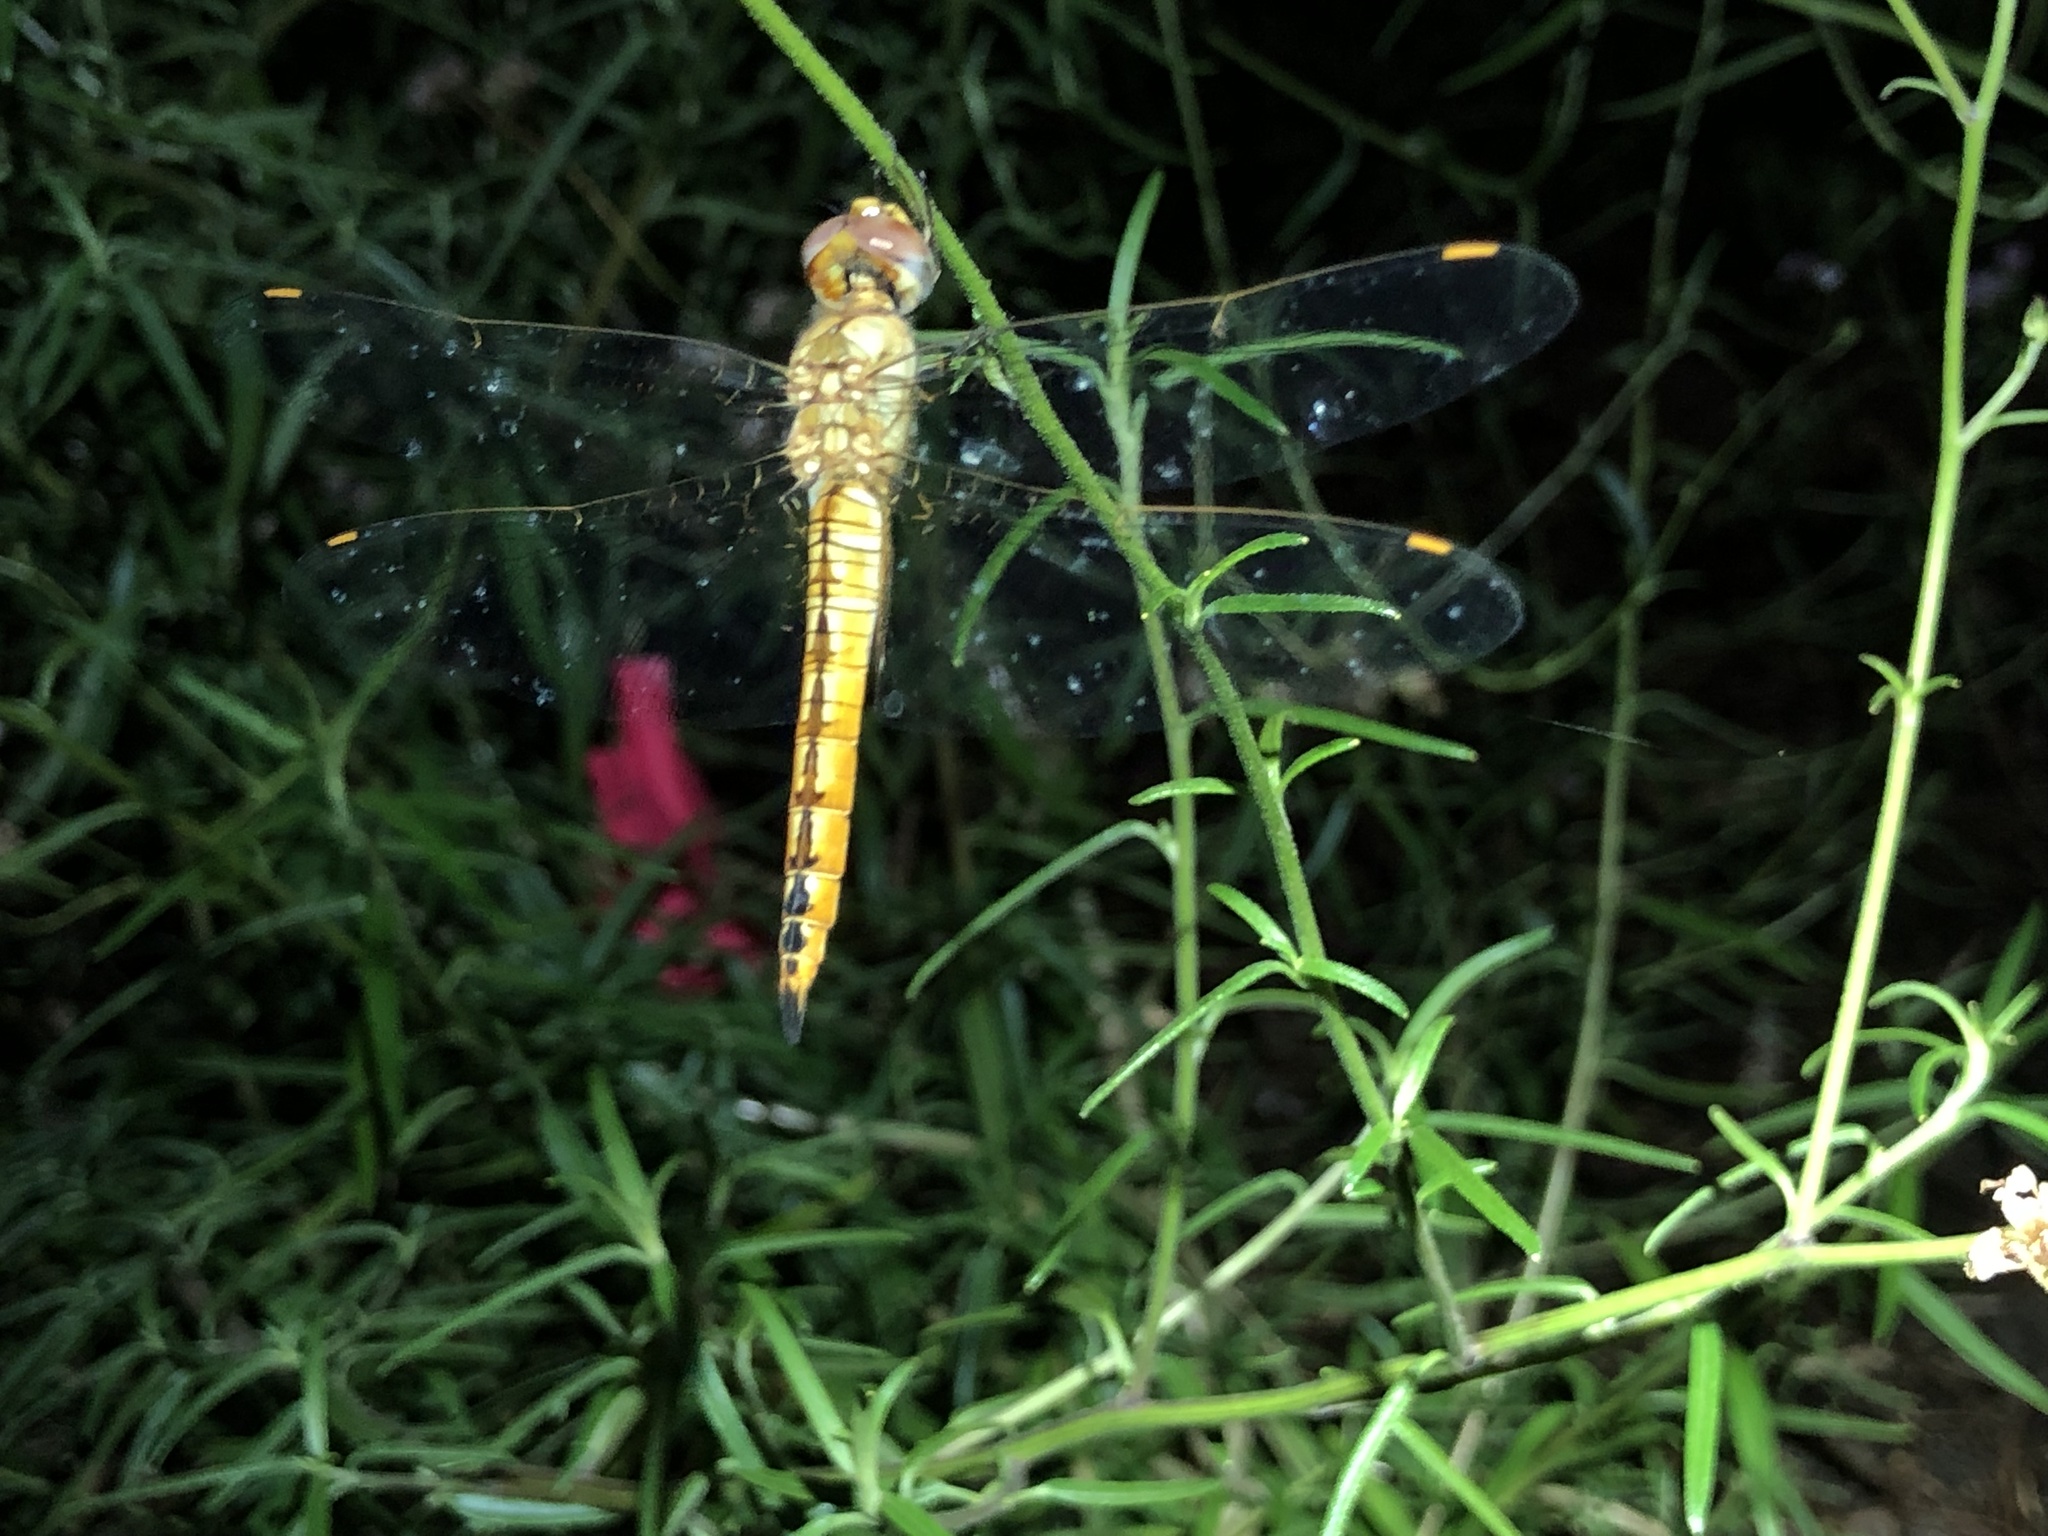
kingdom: Animalia
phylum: Arthropoda
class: Insecta
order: Odonata
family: Libellulidae
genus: Pantala
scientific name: Pantala flavescens
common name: Wandering glider
